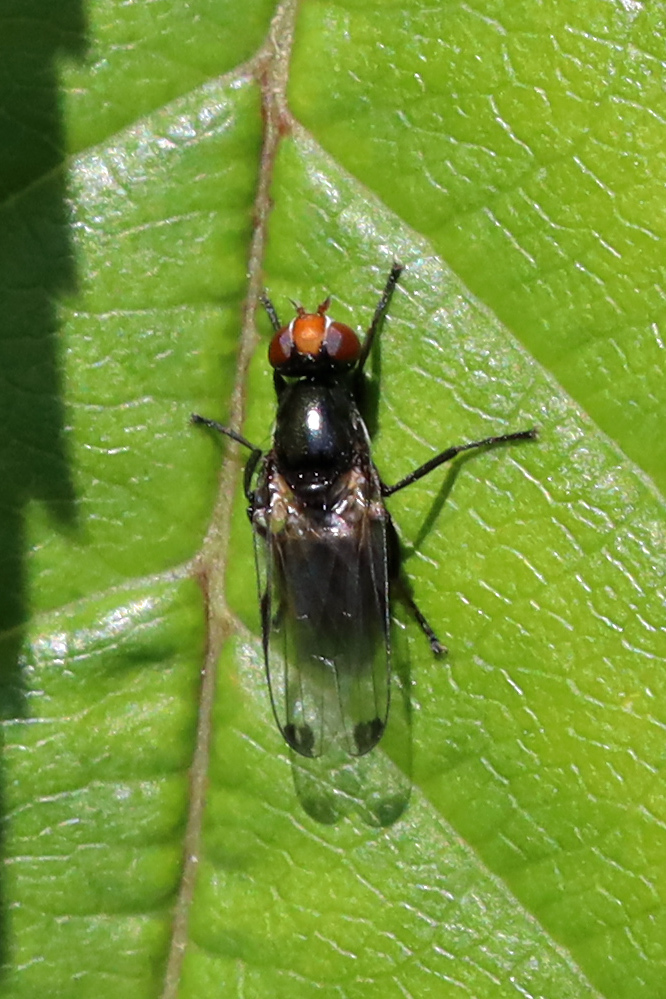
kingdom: Animalia
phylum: Arthropoda
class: Insecta
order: Diptera
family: Ulidiidae
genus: Seioptera
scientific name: Seioptera vibrans
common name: Dark-tipped wingwaver
